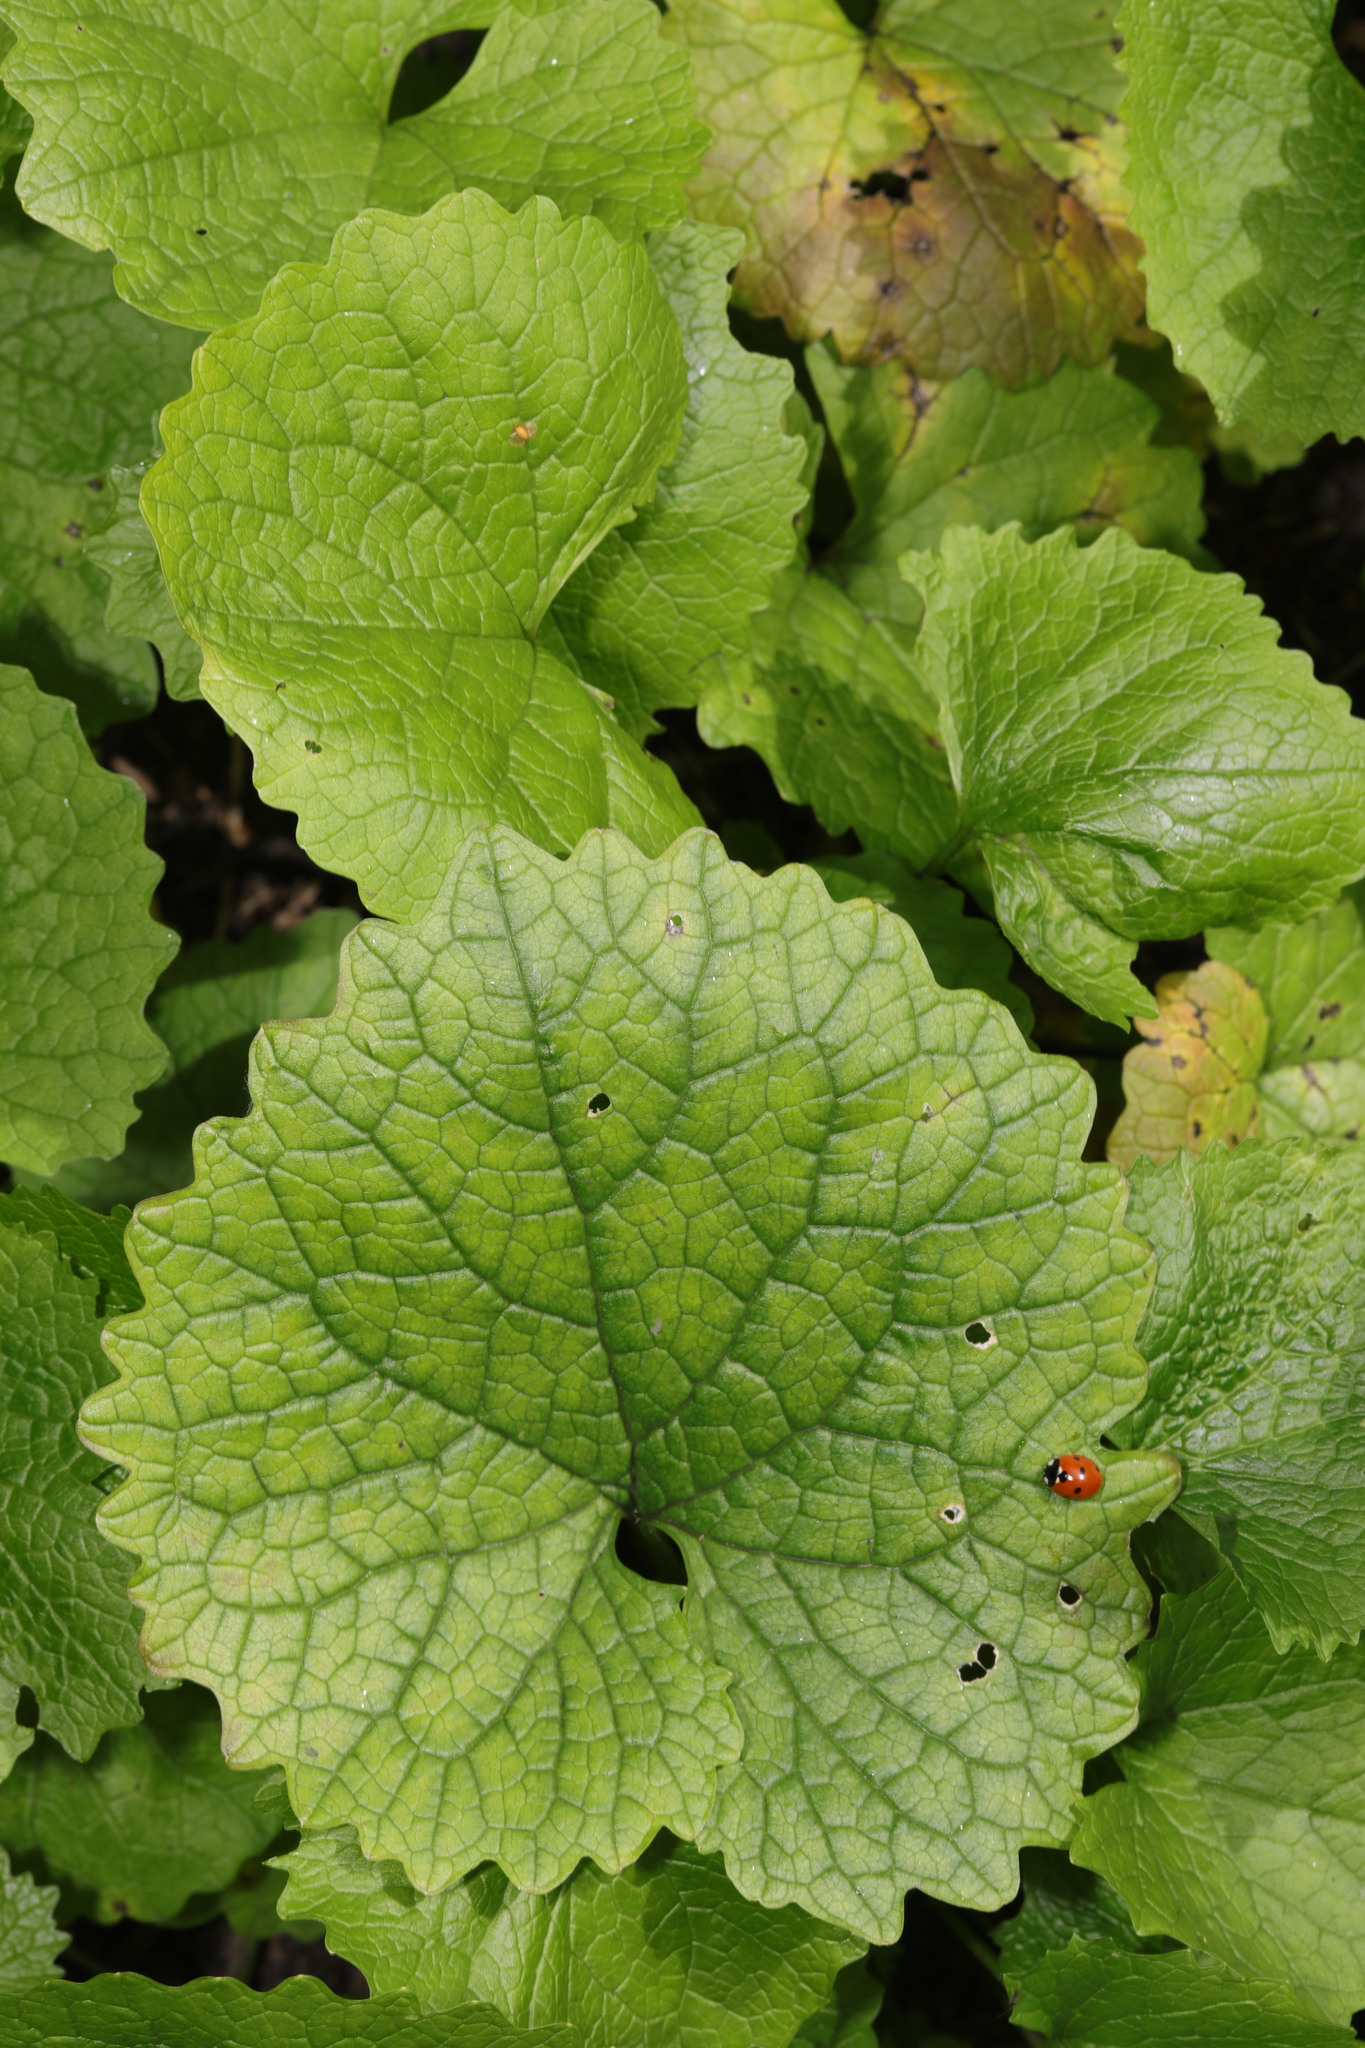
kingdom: Plantae
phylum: Tracheophyta
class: Magnoliopsida
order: Brassicales
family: Brassicaceae
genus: Alliaria
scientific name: Alliaria petiolata
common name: Garlic mustard
